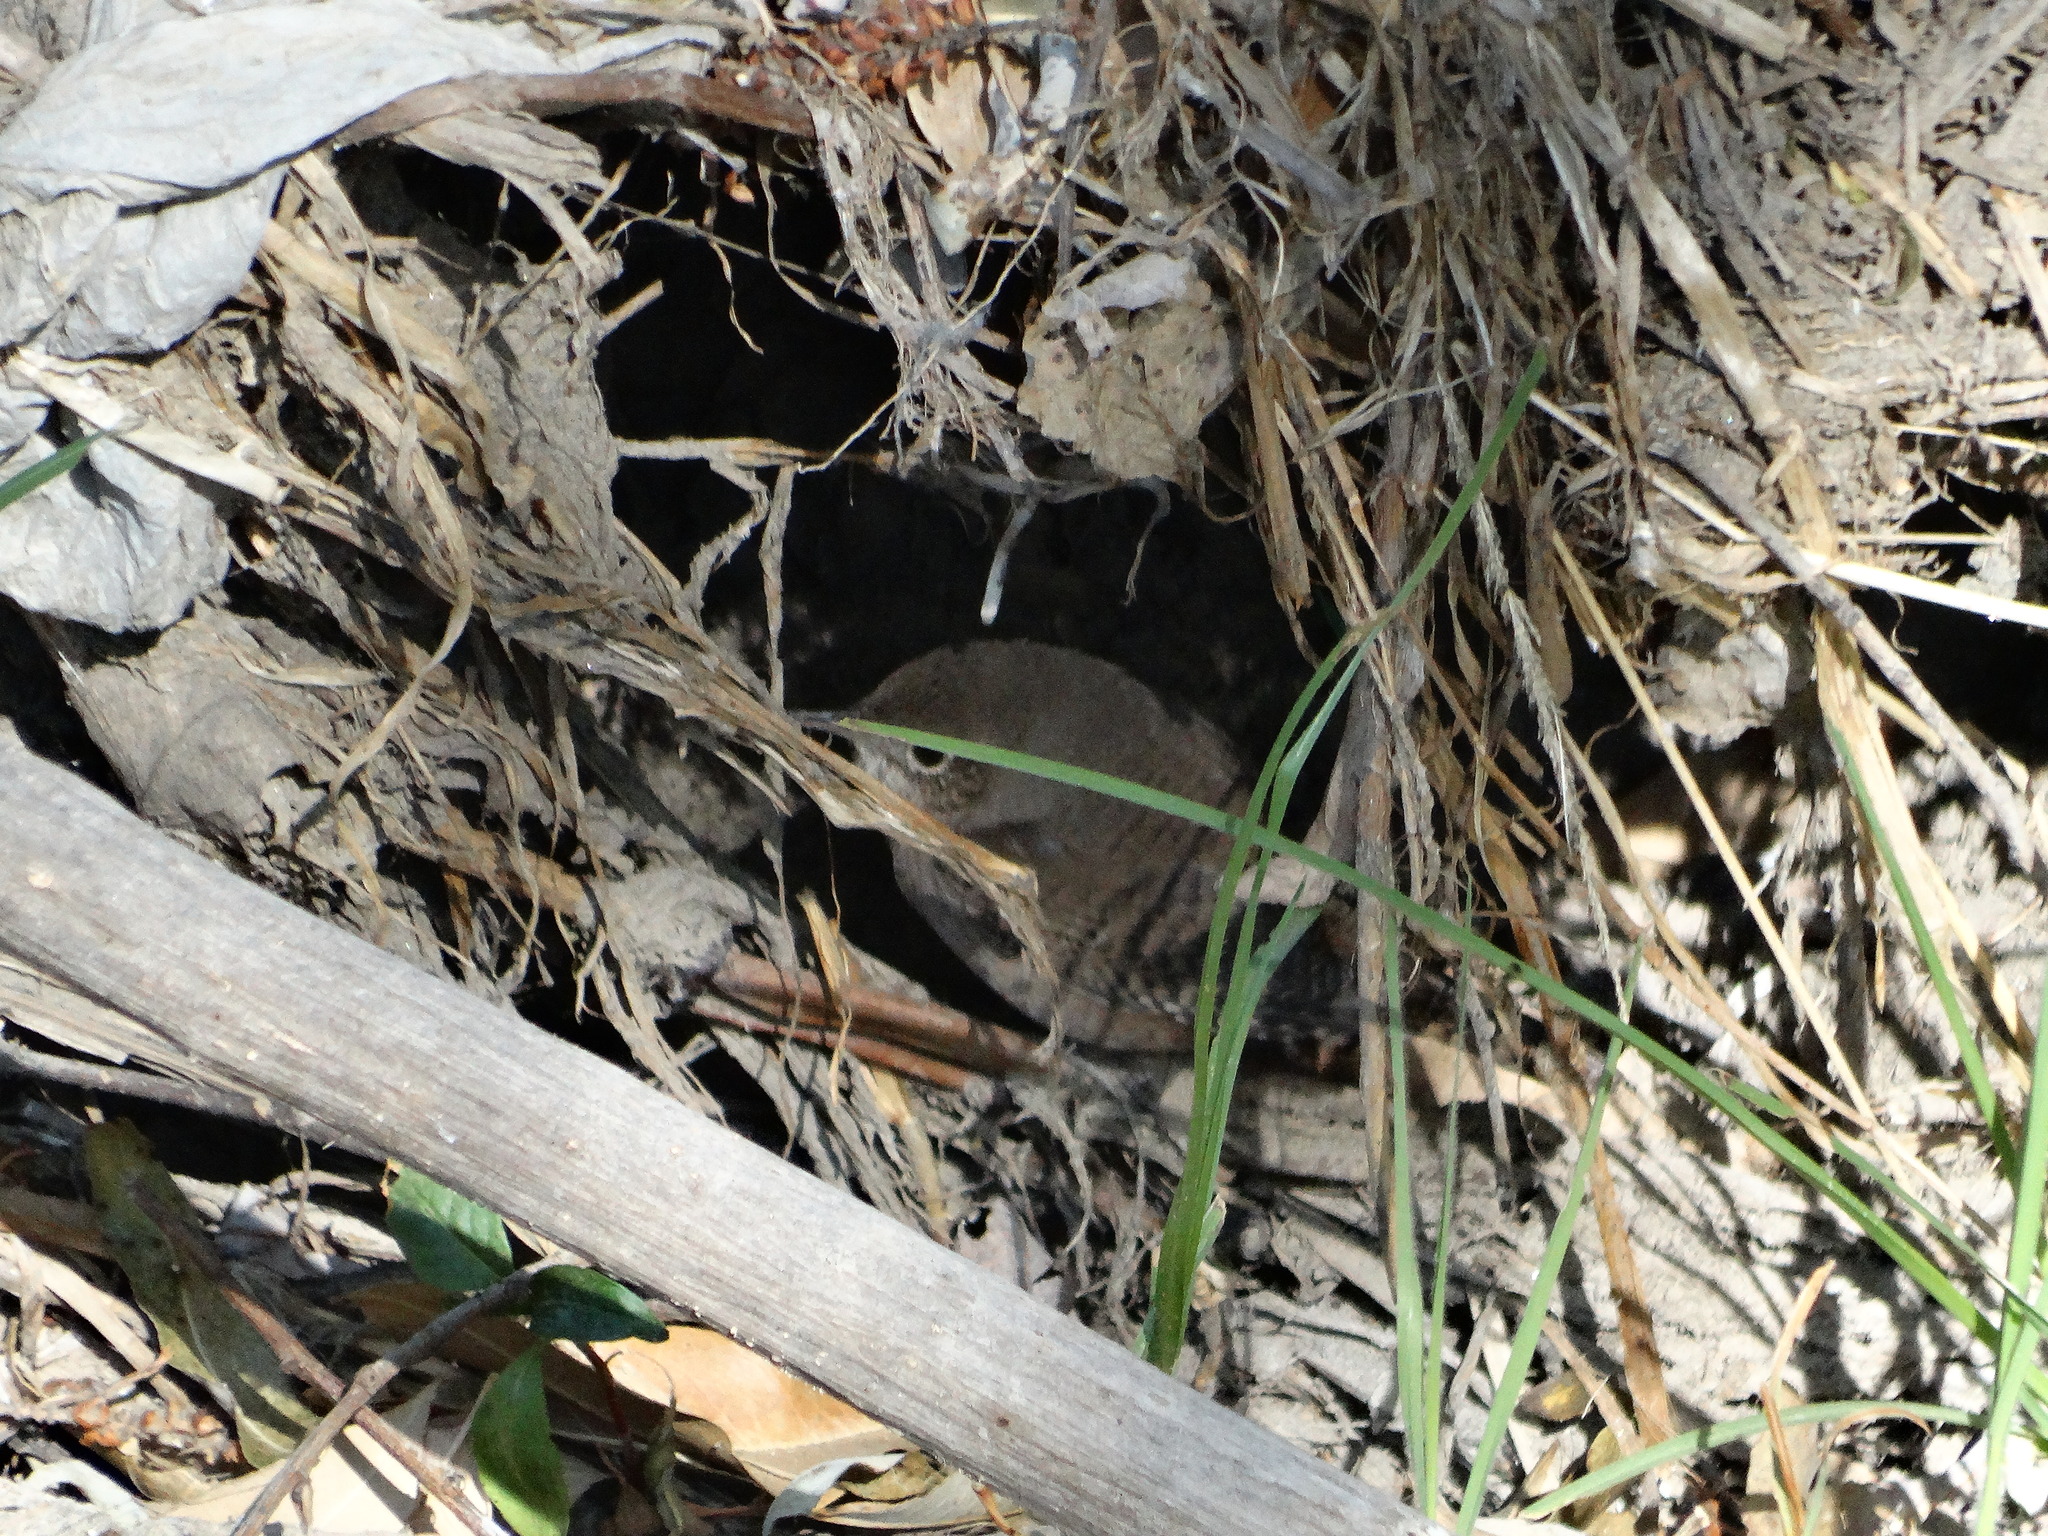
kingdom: Animalia
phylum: Chordata
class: Aves
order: Passeriformes
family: Troglodytidae
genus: Troglodytes
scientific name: Troglodytes aedon
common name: House wren
